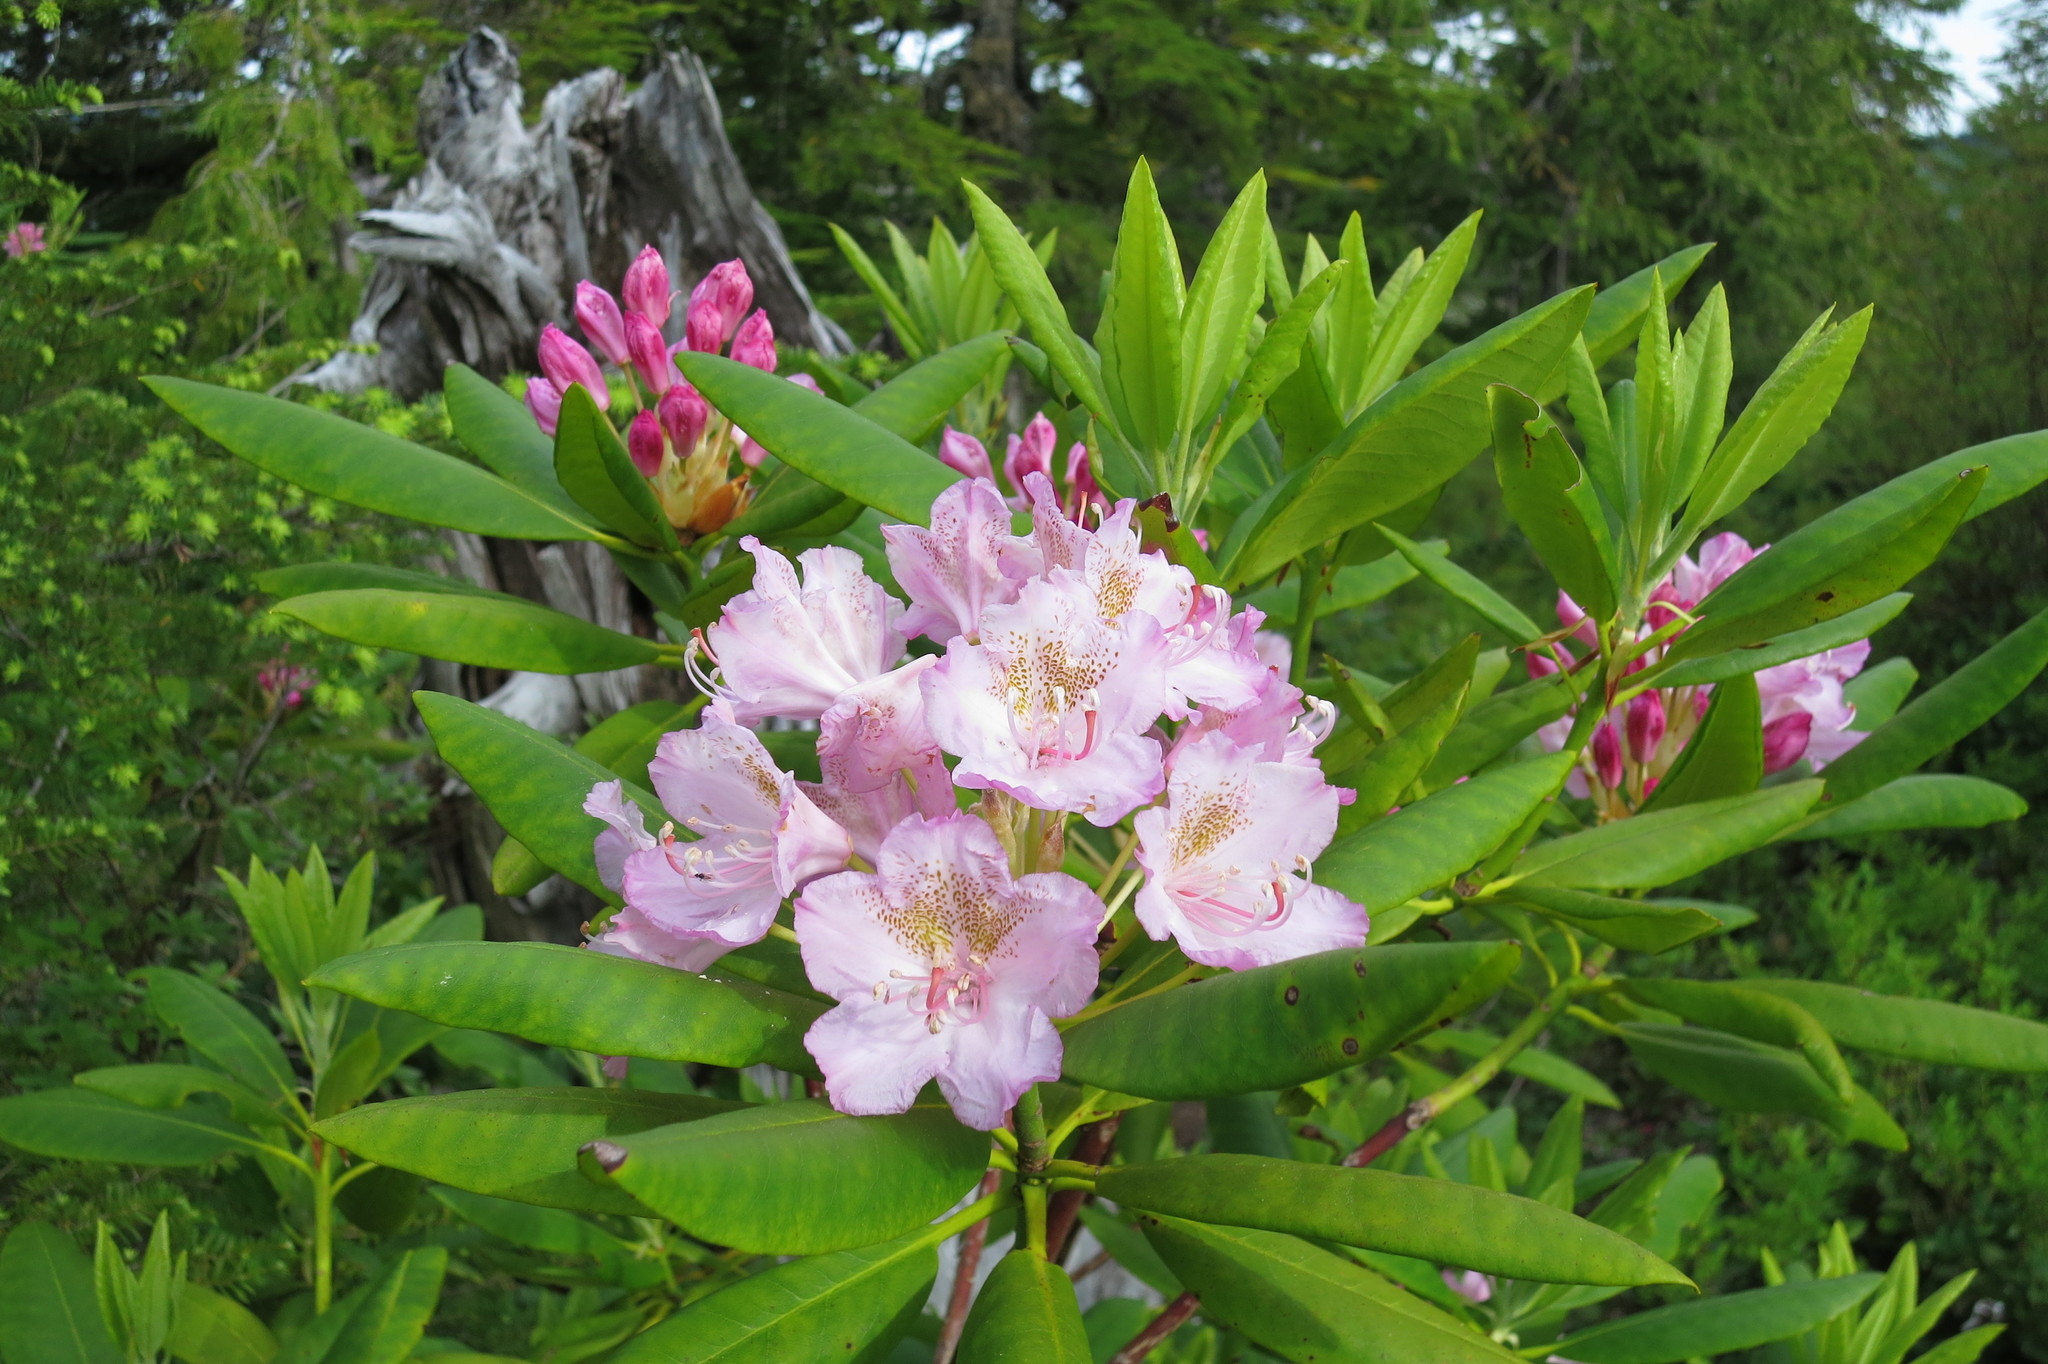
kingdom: Plantae
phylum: Tracheophyta
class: Magnoliopsida
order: Ericales
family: Ericaceae
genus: Rhododendron
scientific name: Rhododendron macrophyllum
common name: California rose bay
